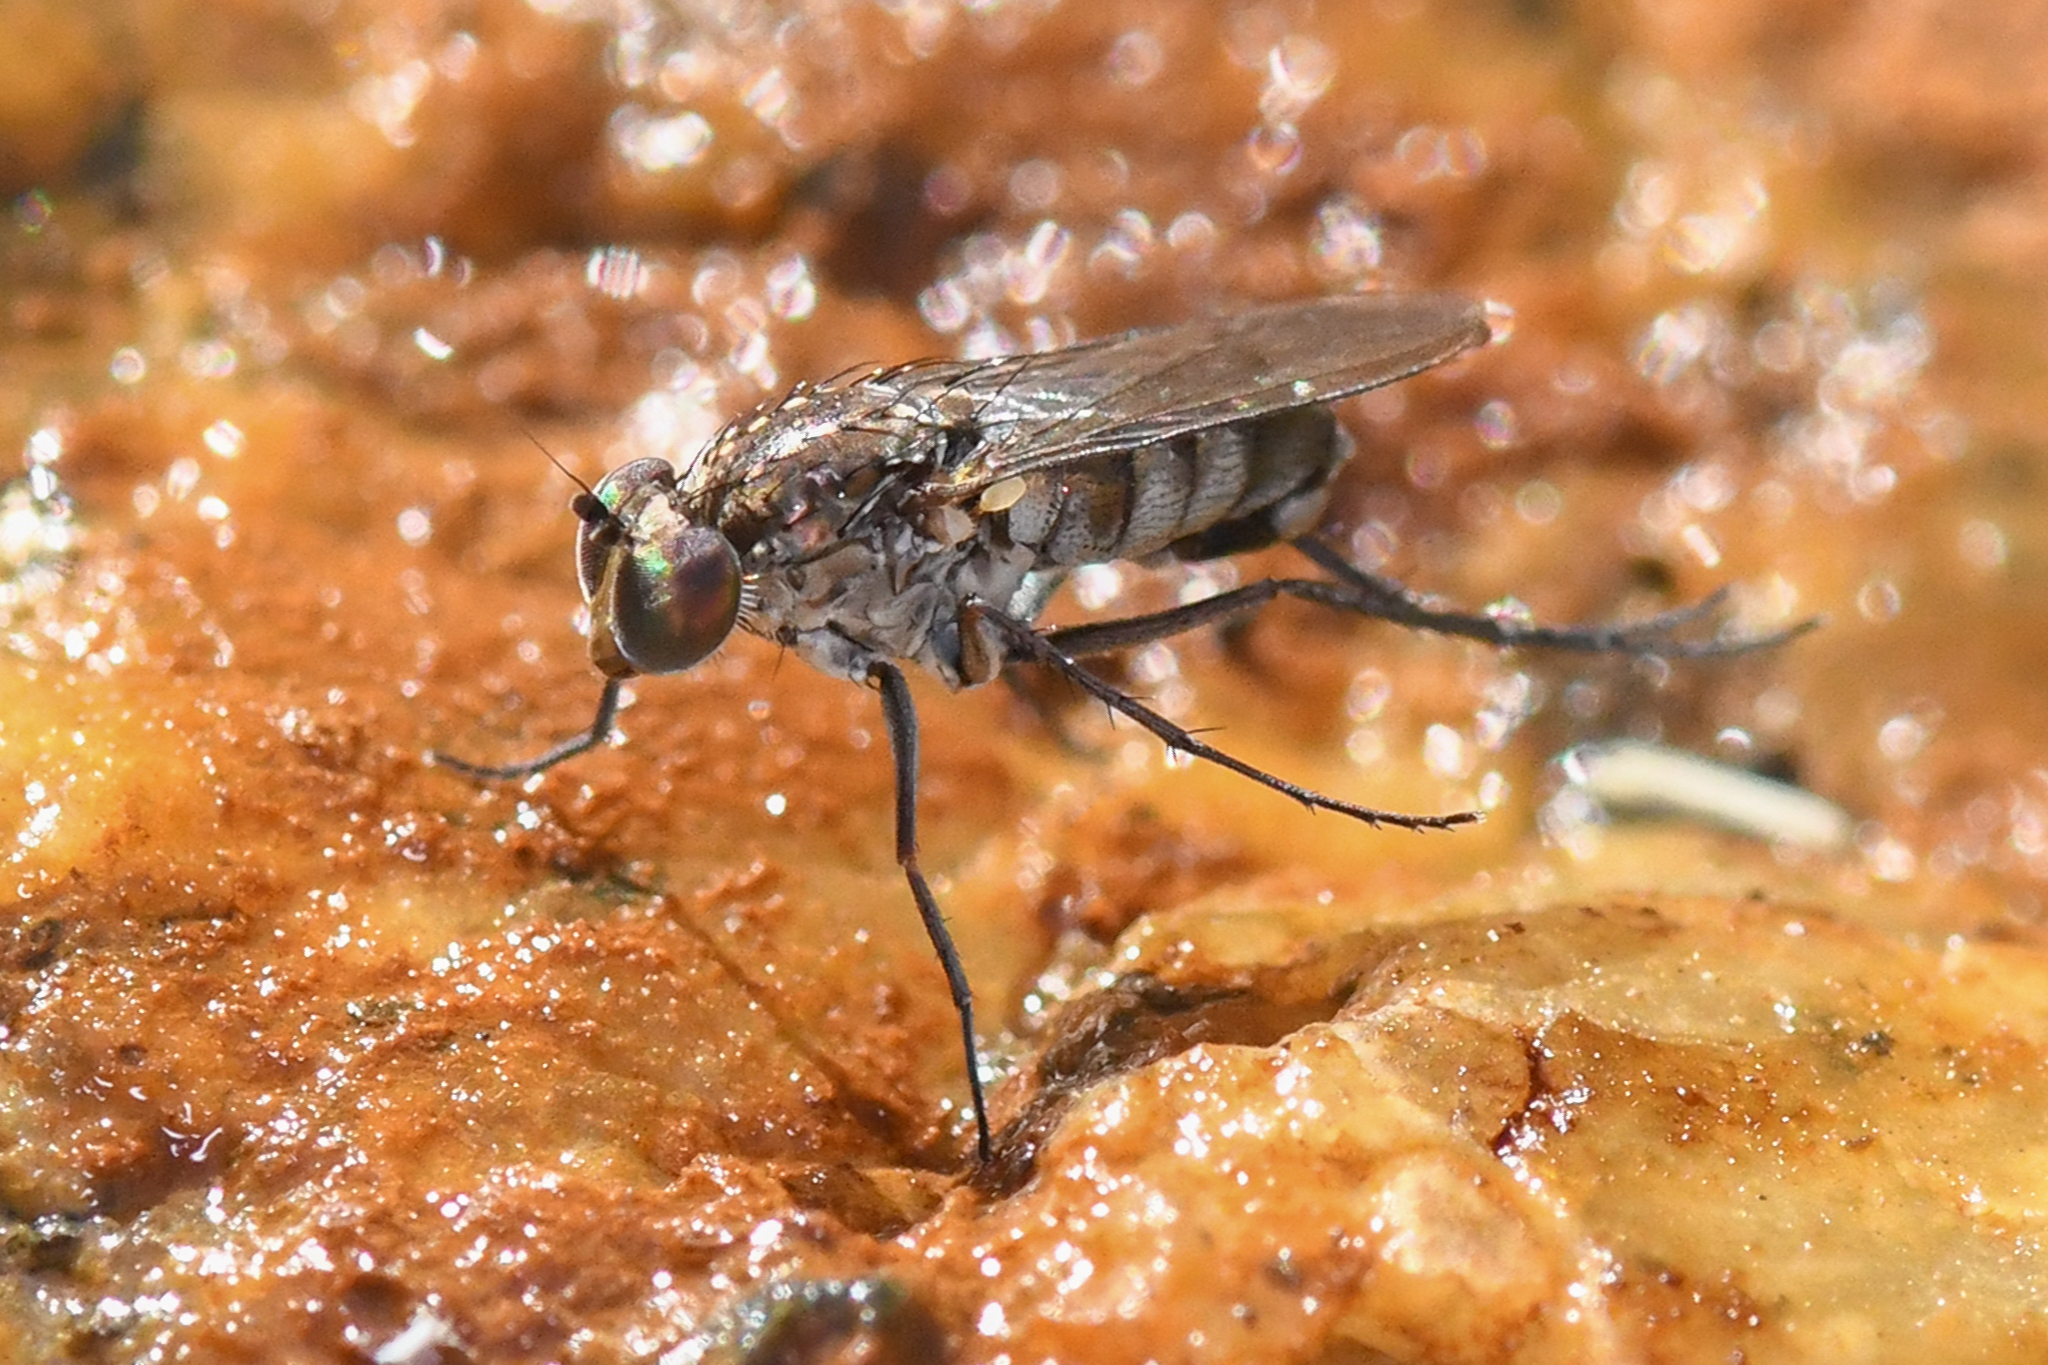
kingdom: Animalia
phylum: Arthropoda
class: Insecta
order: Diptera
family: Dolichopodidae
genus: Tachytrechus
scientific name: Tachytrechus angustipennis
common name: Long-legged fly
